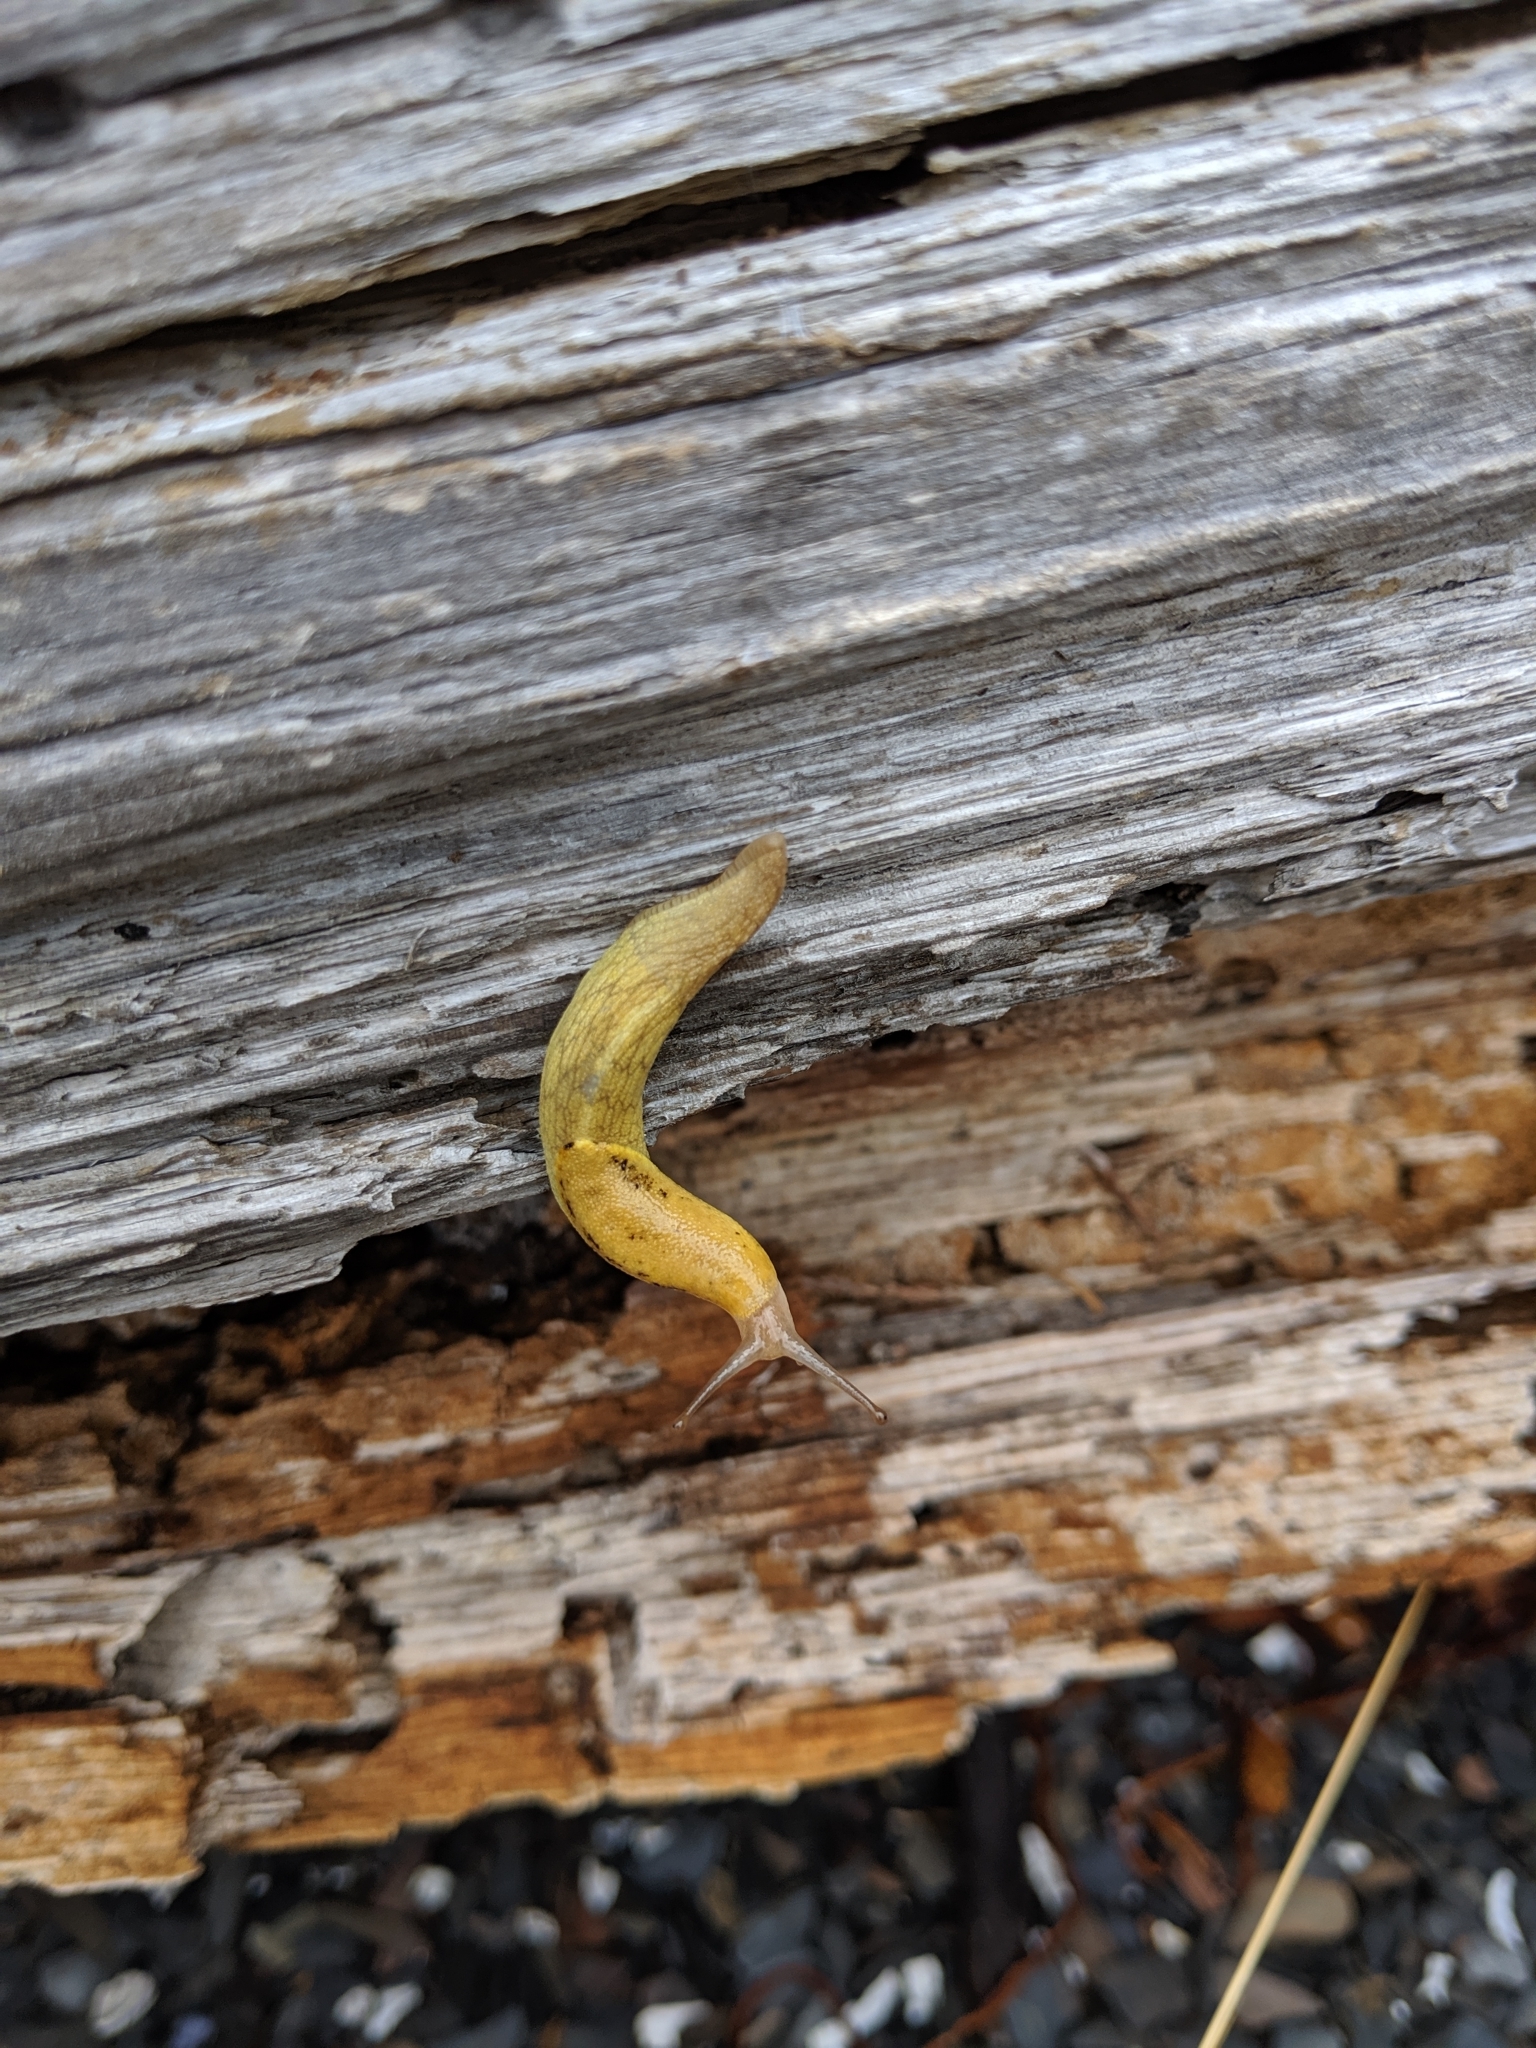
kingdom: Animalia
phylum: Mollusca
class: Gastropoda
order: Stylommatophora
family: Ariolimacidae
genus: Prophysaon
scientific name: Prophysaon foliolatum
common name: Yellow-bordered taildropper
